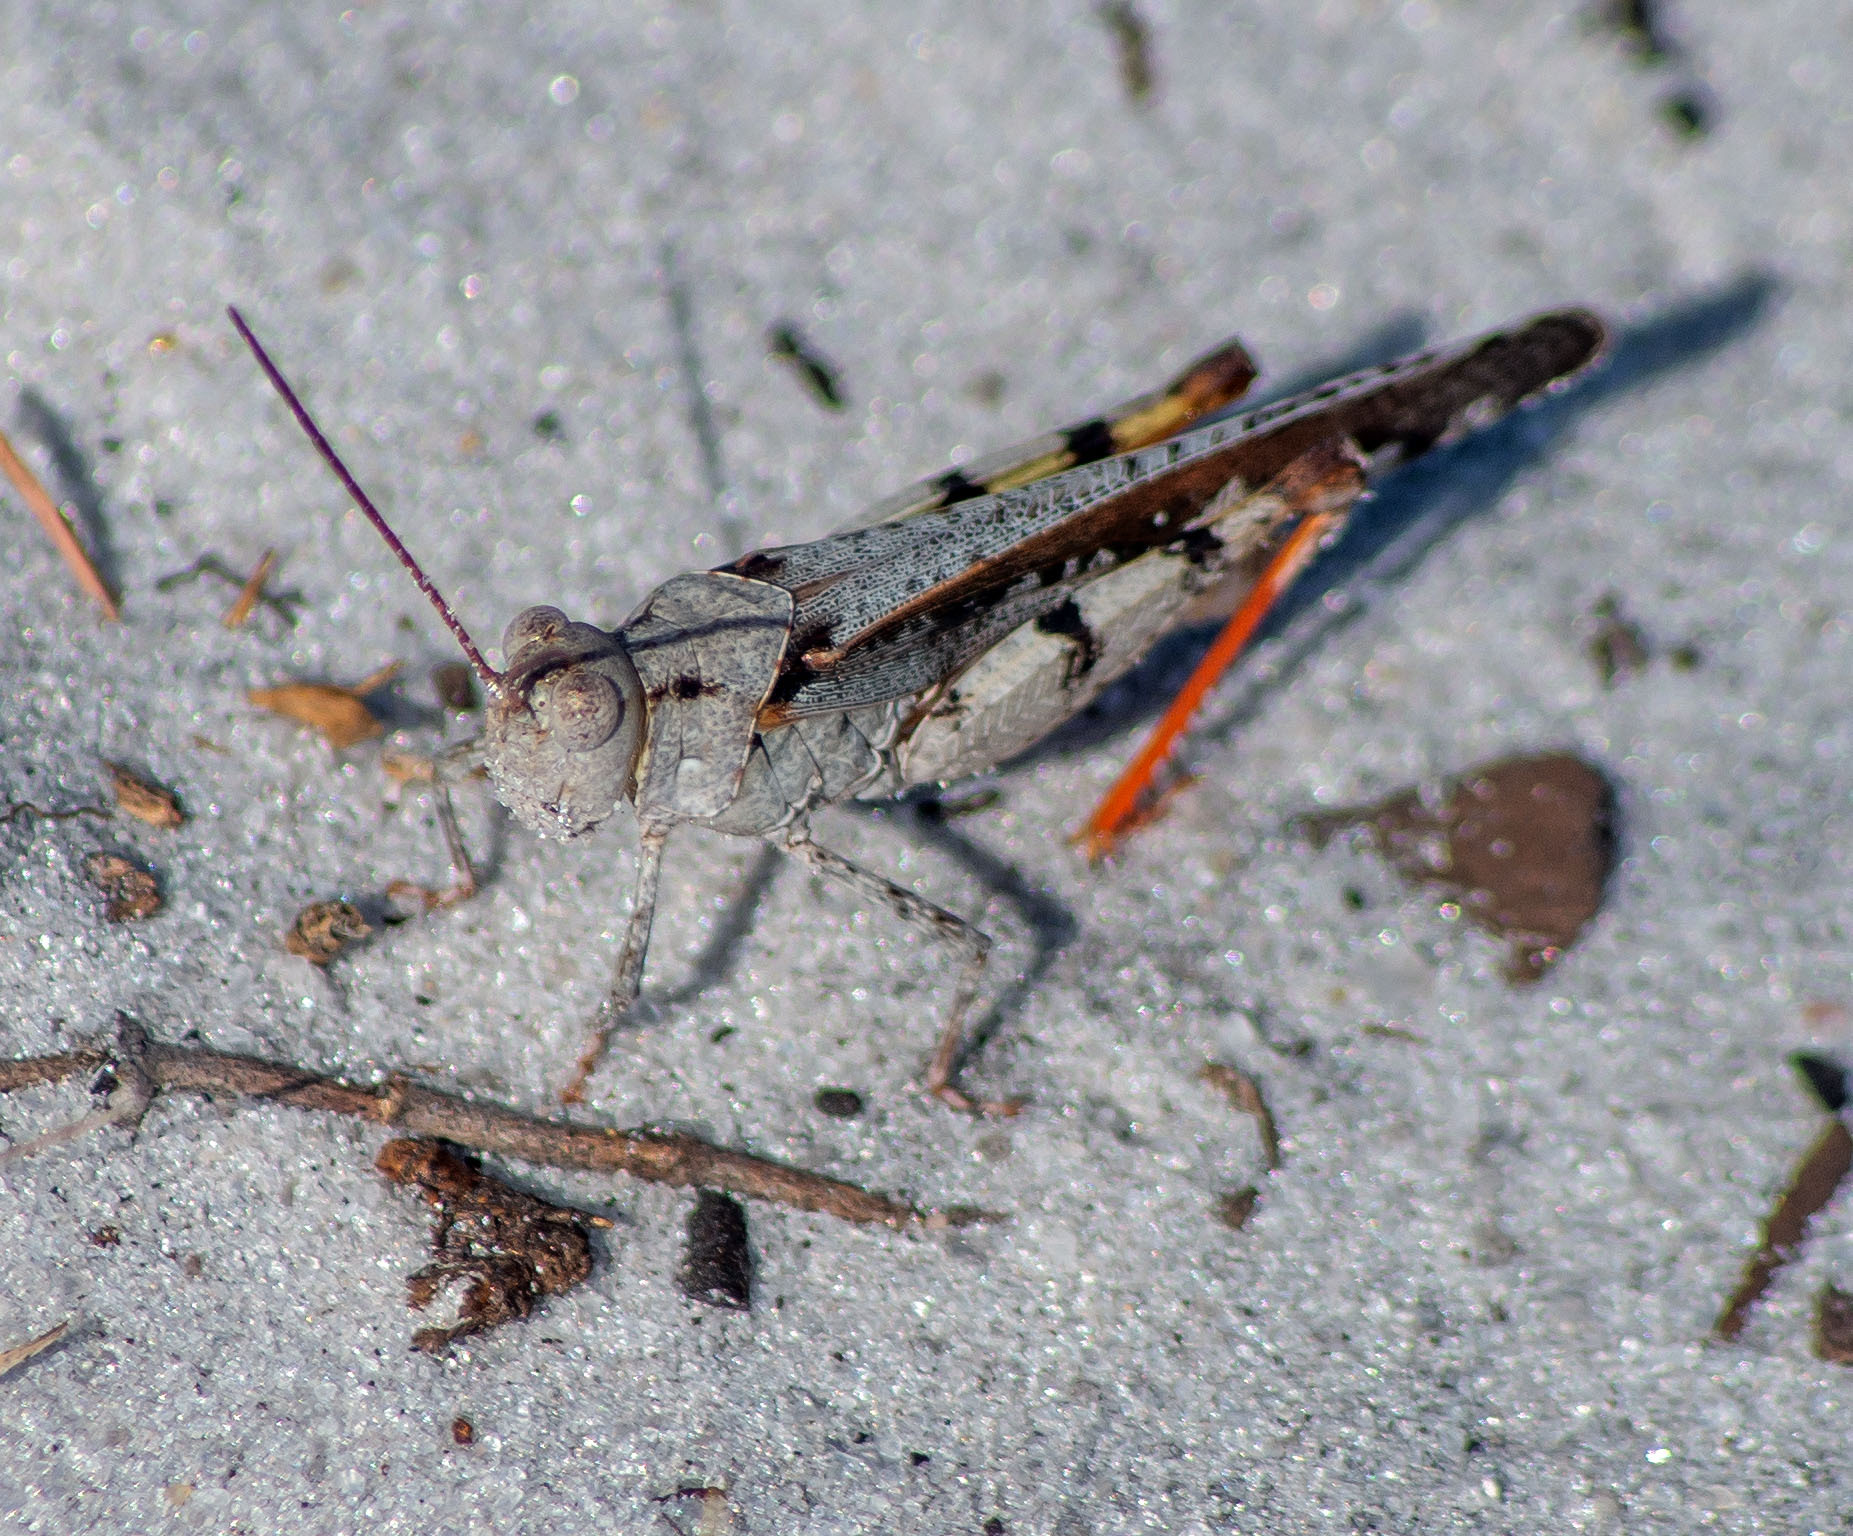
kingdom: Animalia
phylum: Arthropoda
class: Insecta
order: Orthoptera
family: Acrididae
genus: Spharagemon
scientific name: Spharagemon marmoratum
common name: Marbled grasshopper
